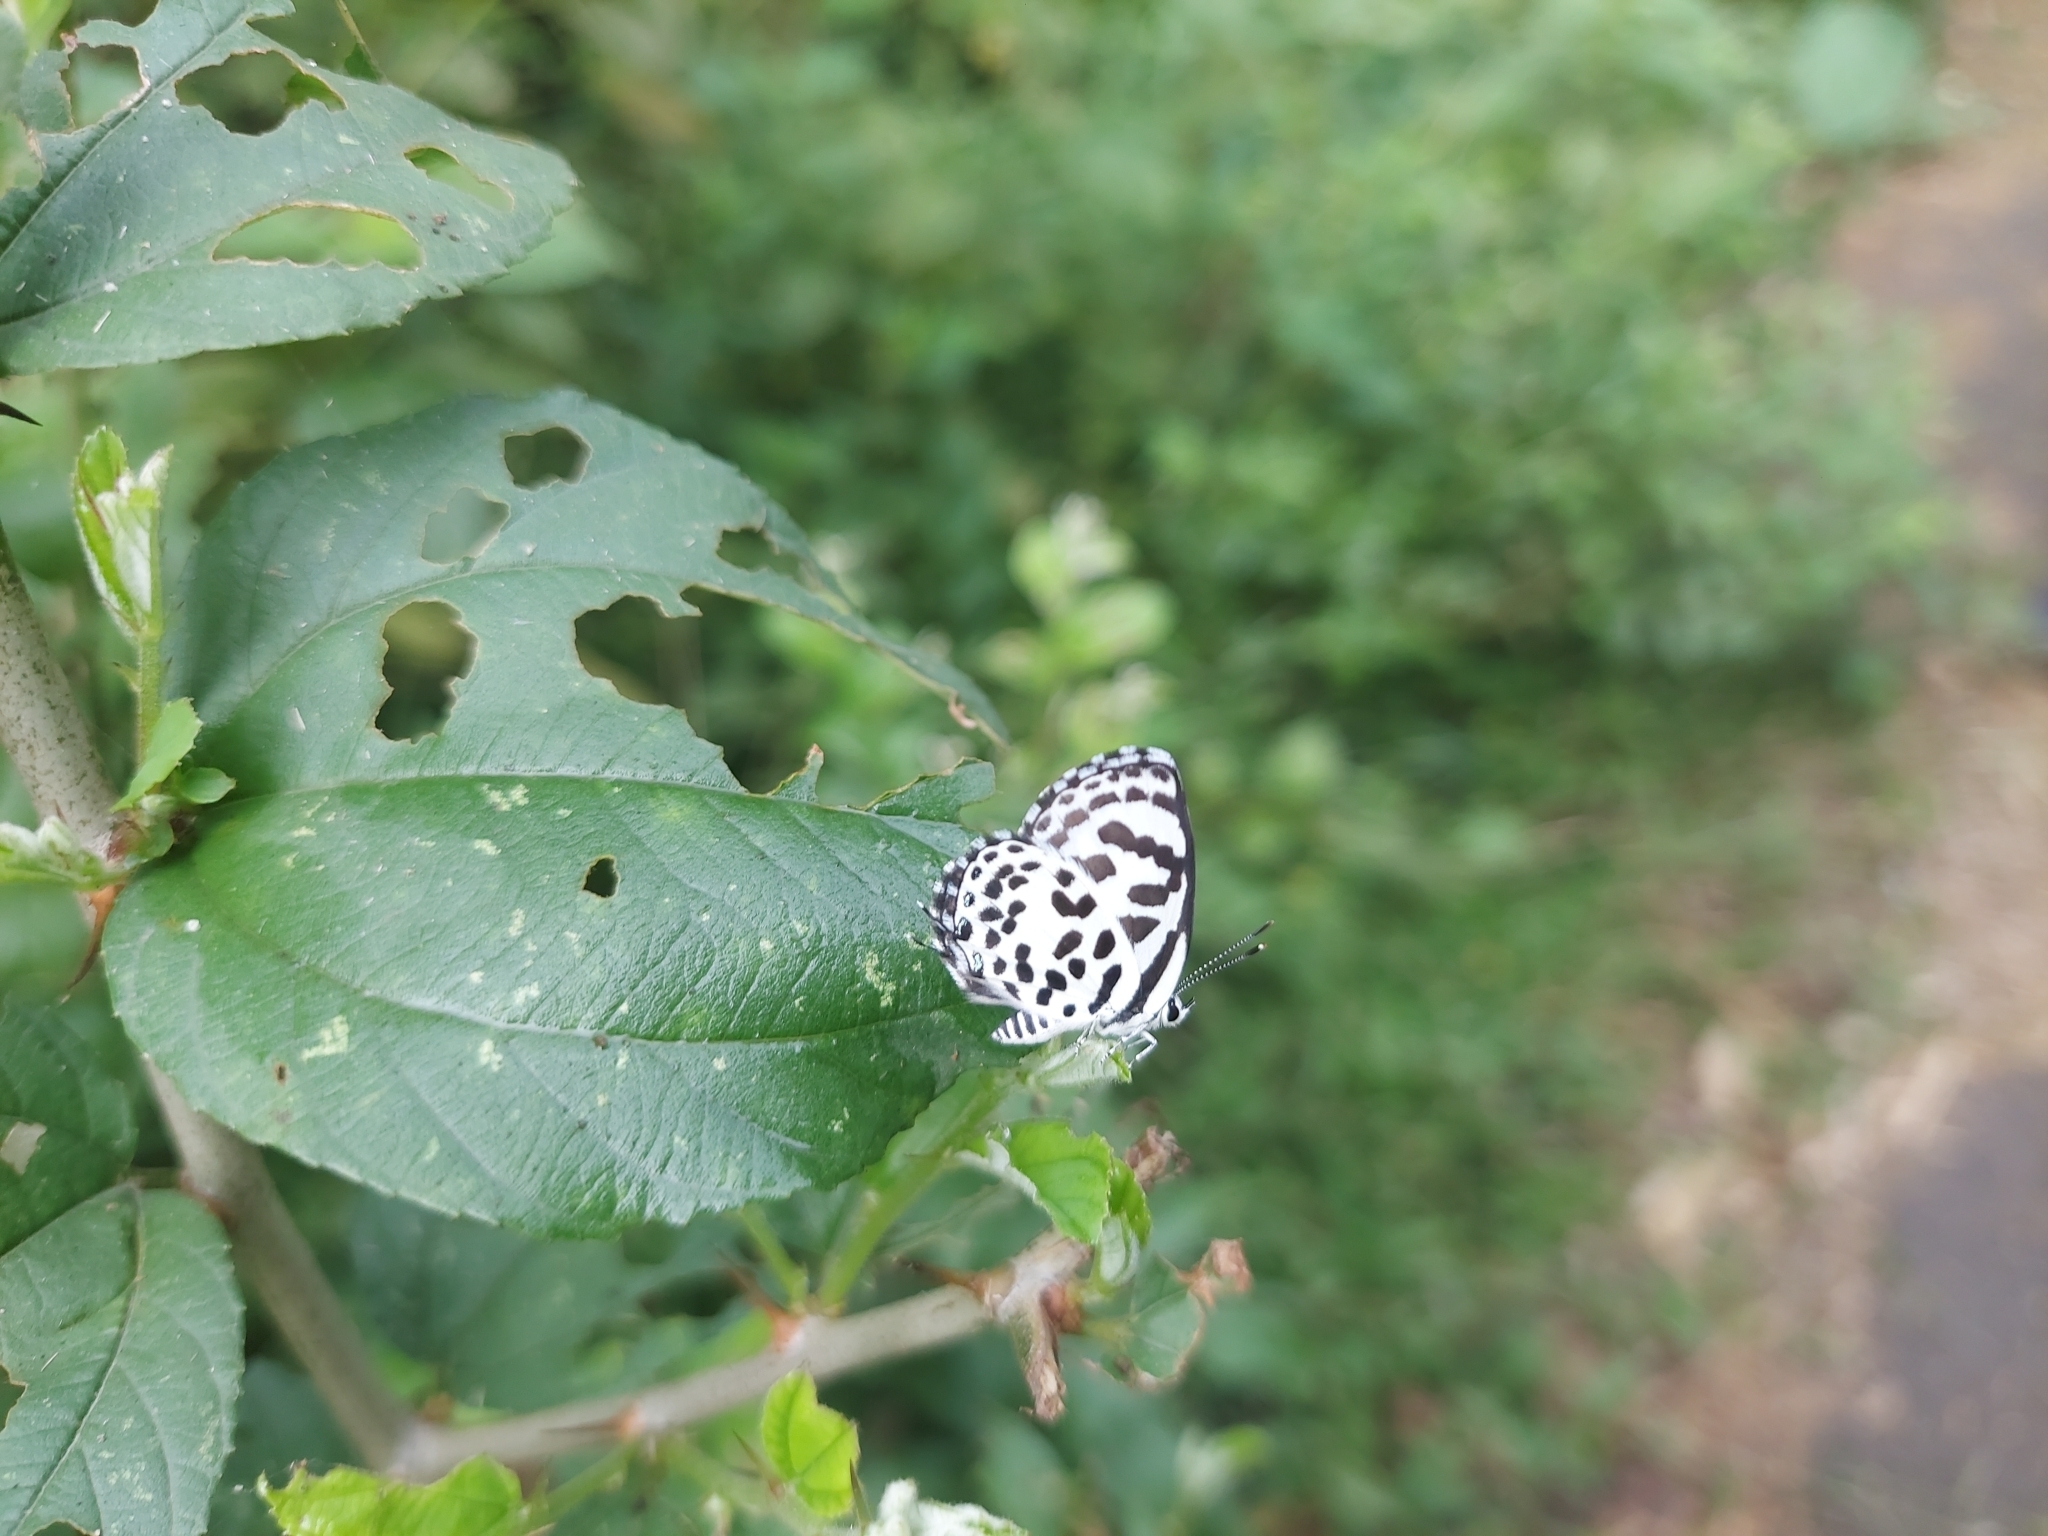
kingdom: Animalia
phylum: Arthropoda
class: Insecta
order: Lepidoptera
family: Lycaenidae
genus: Castalius
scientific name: Castalius rosimon
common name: Common pierrot
